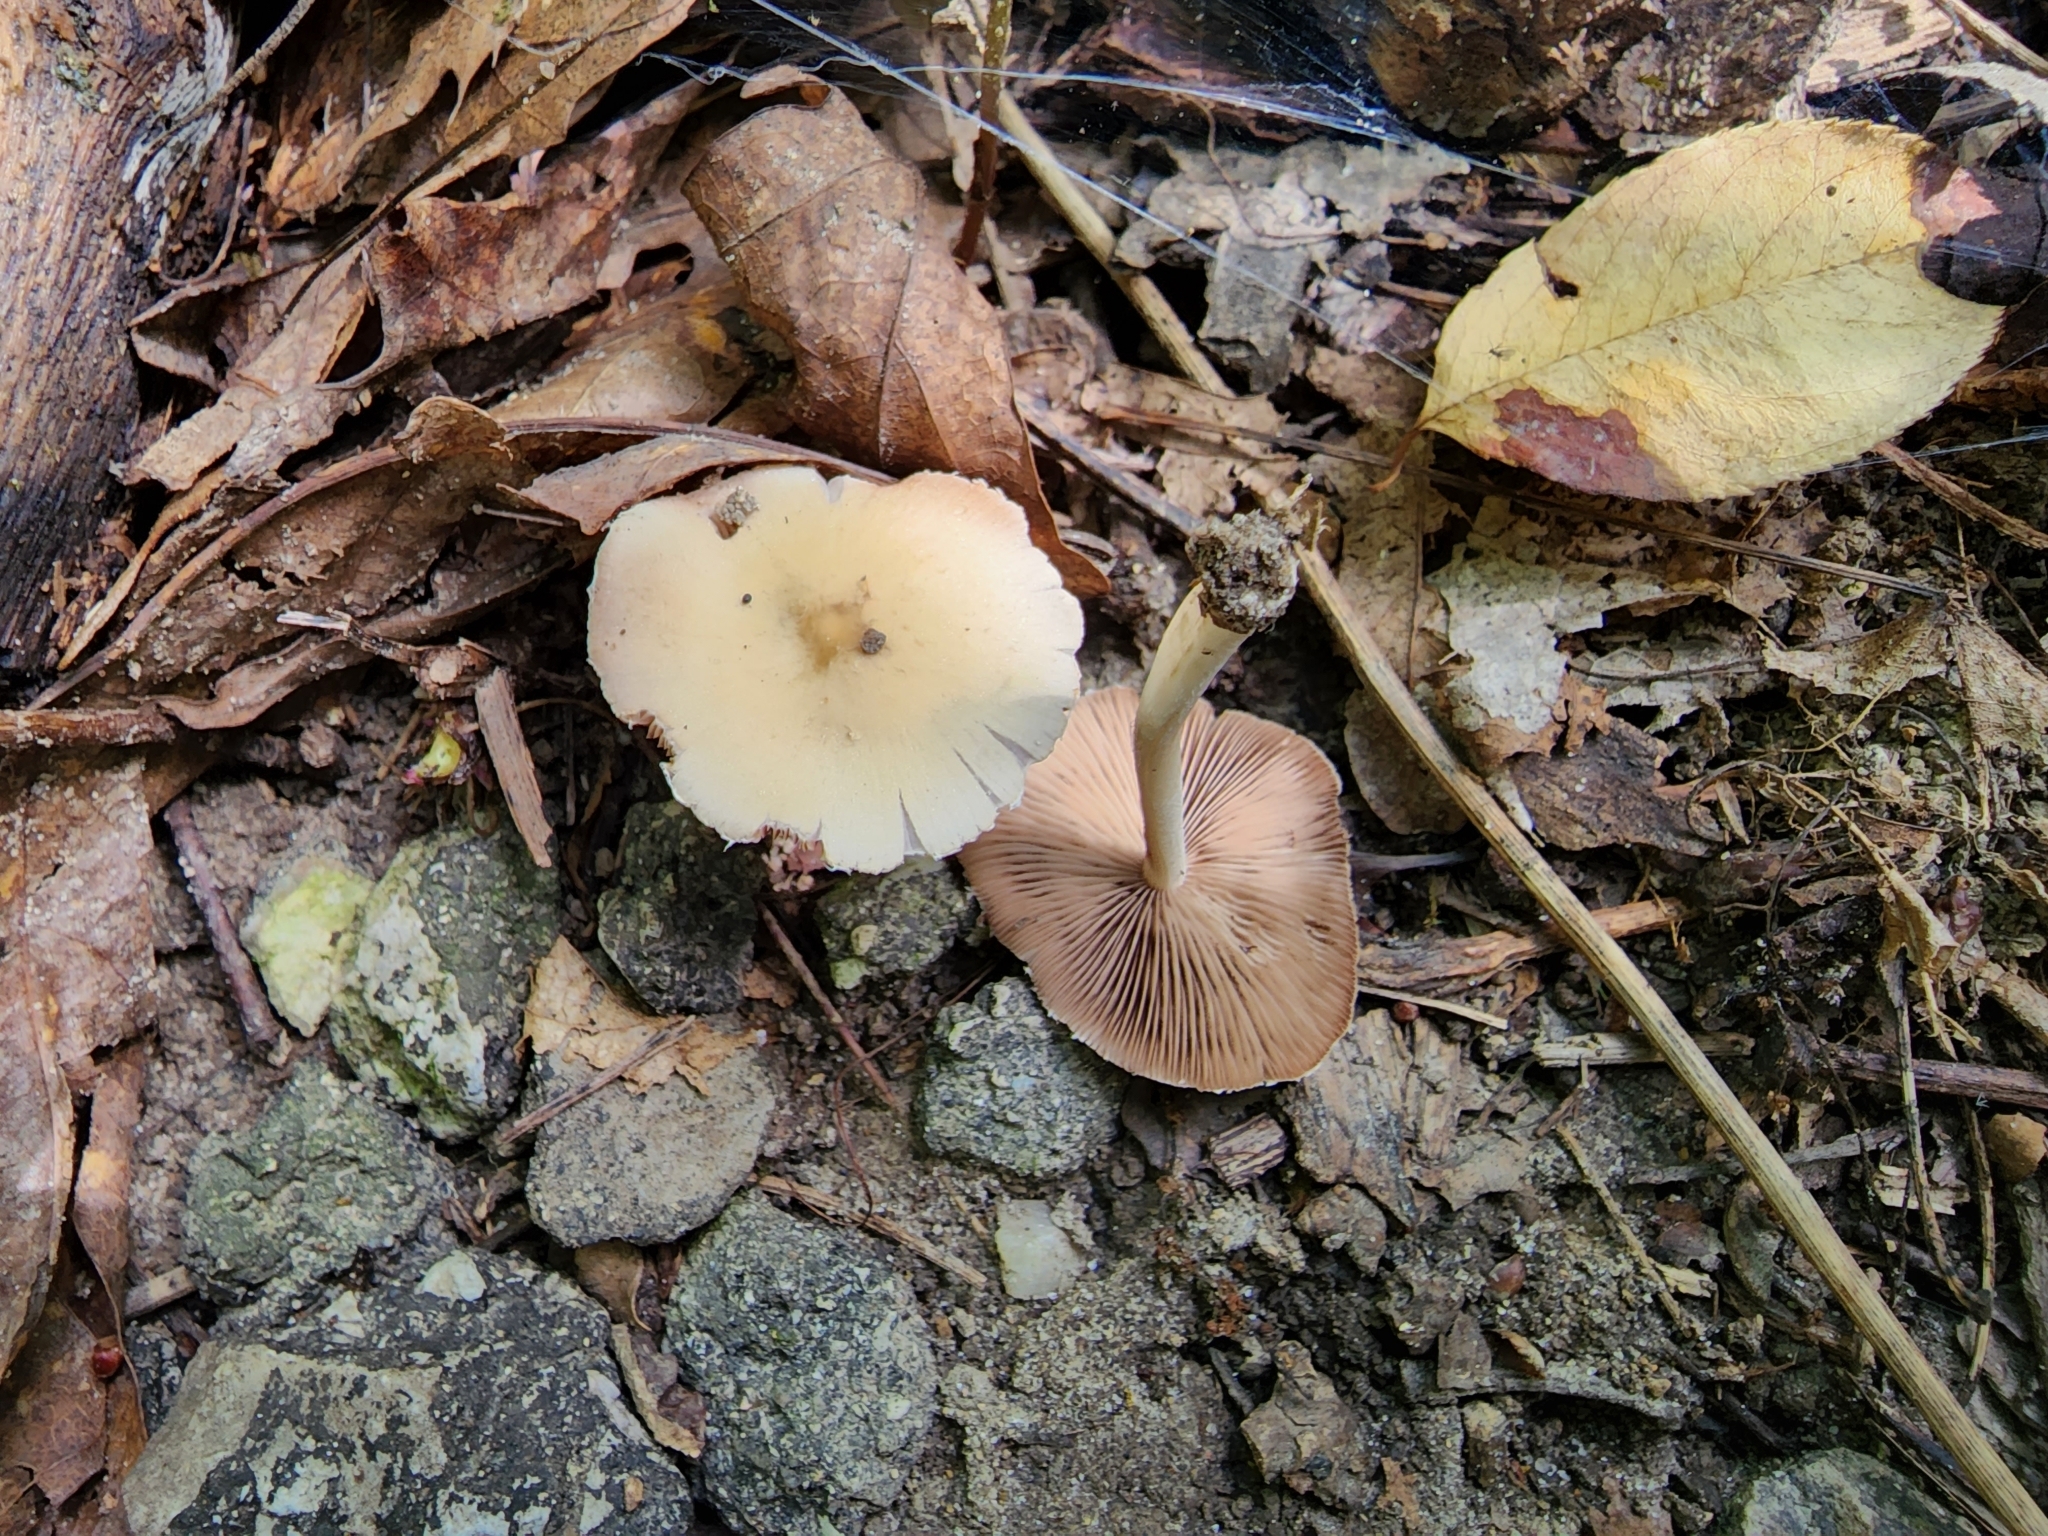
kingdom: Fungi
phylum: Basidiomycota
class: Agaricomycetes
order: Agaricales
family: Psathyrellaceae
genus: Candolleomyces
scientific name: Candolleomyces candolleanus
